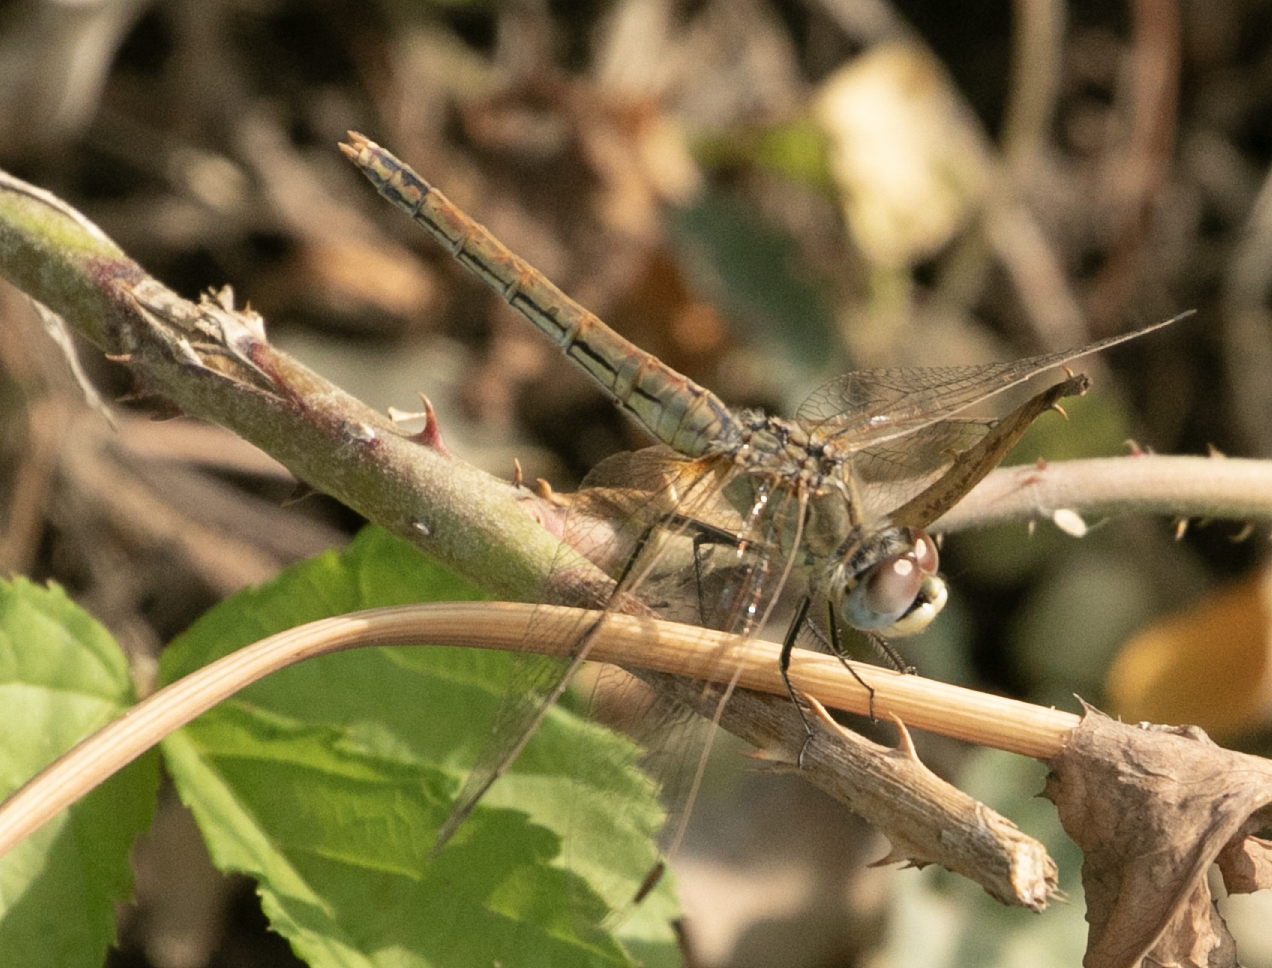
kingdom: Animalia
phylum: Arthropoda
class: Insecta
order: Odonata
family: Libellulidae
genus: Sympetrum
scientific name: Sympetrum fonscolombii
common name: Red-veined darter
